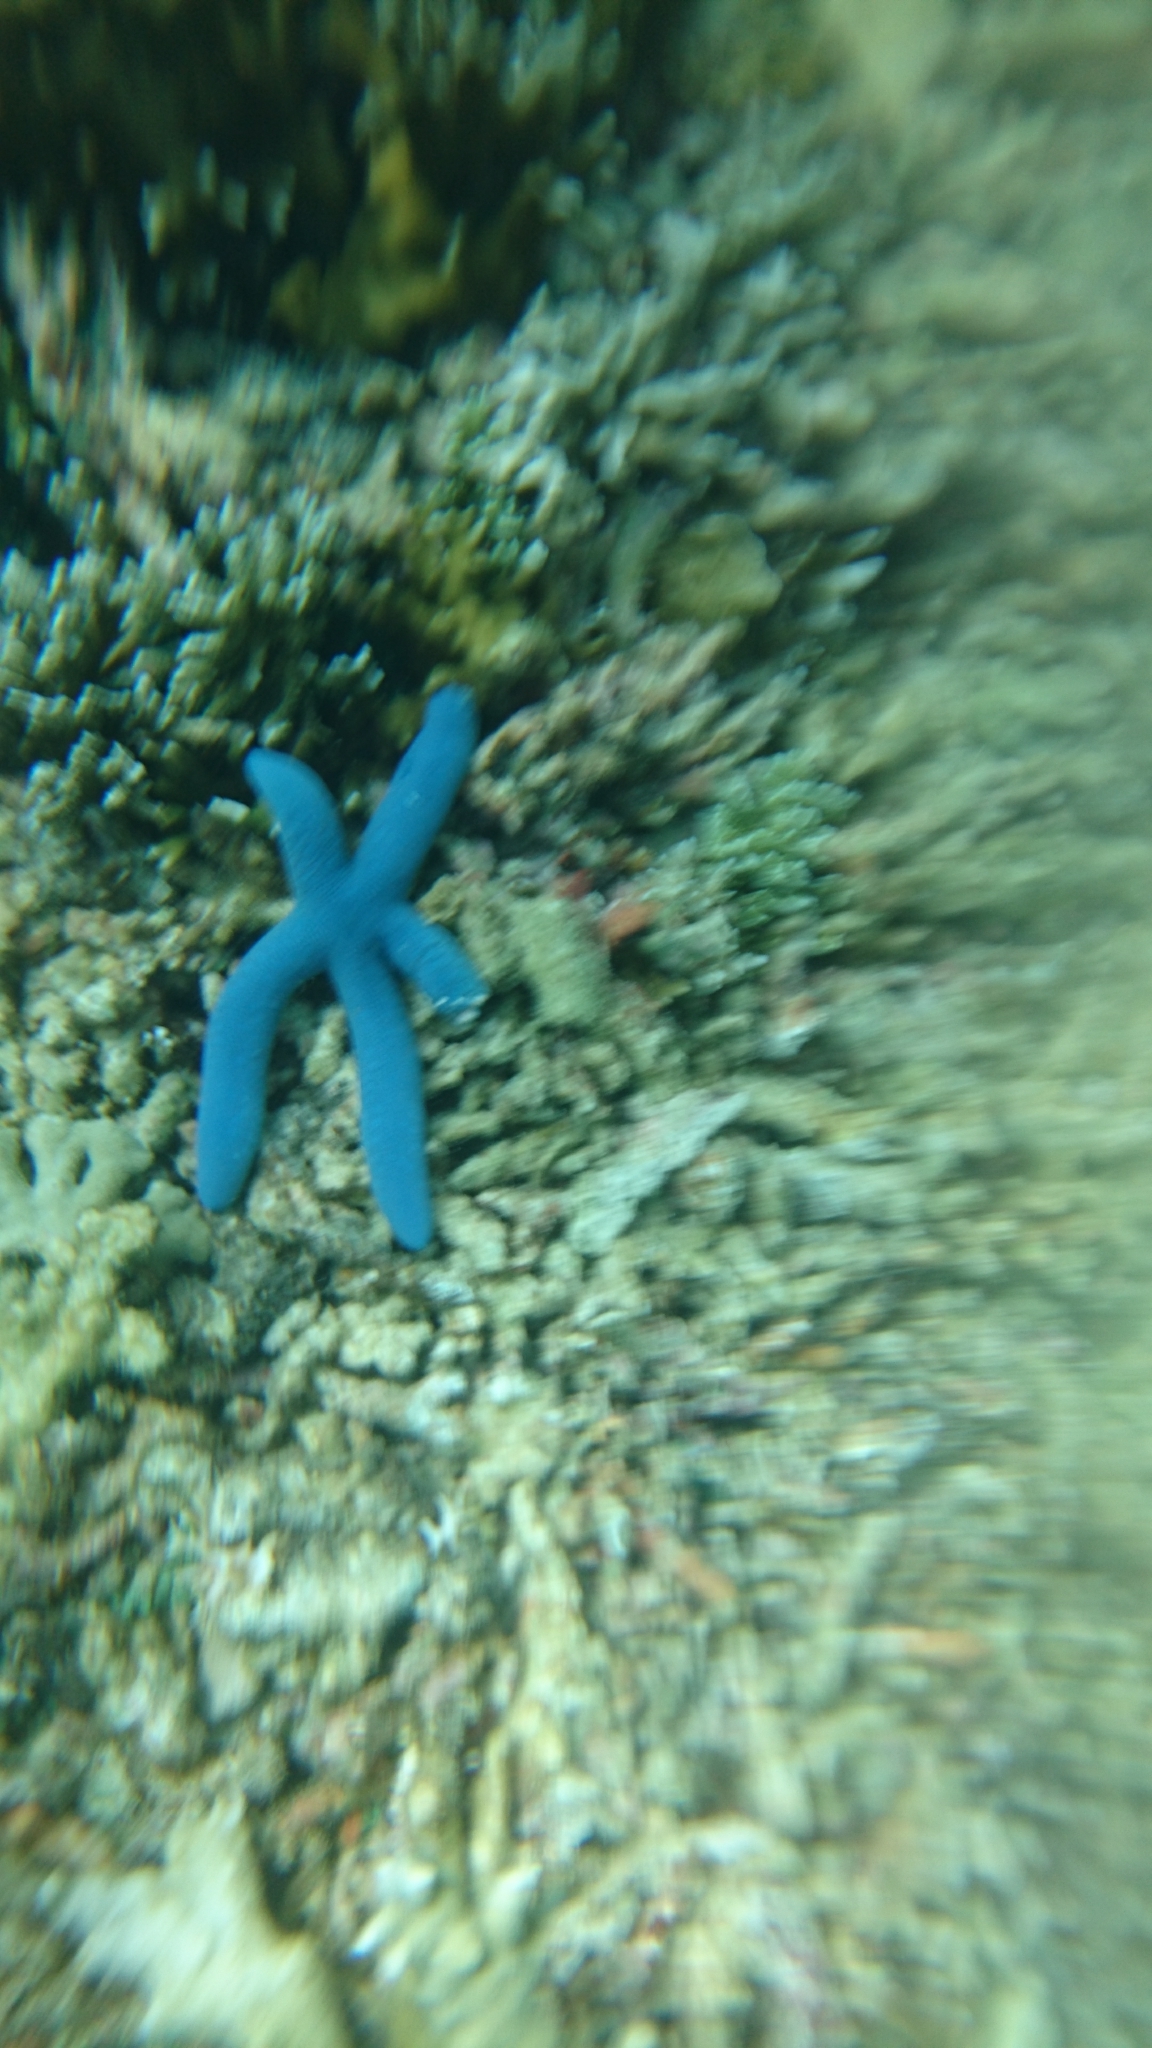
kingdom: Animalia
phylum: Echinodermata
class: Asteroidea
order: Valvatida
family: Ophidiasteridae
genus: Linckia
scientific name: Linckia laevigata
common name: Azure sea star
